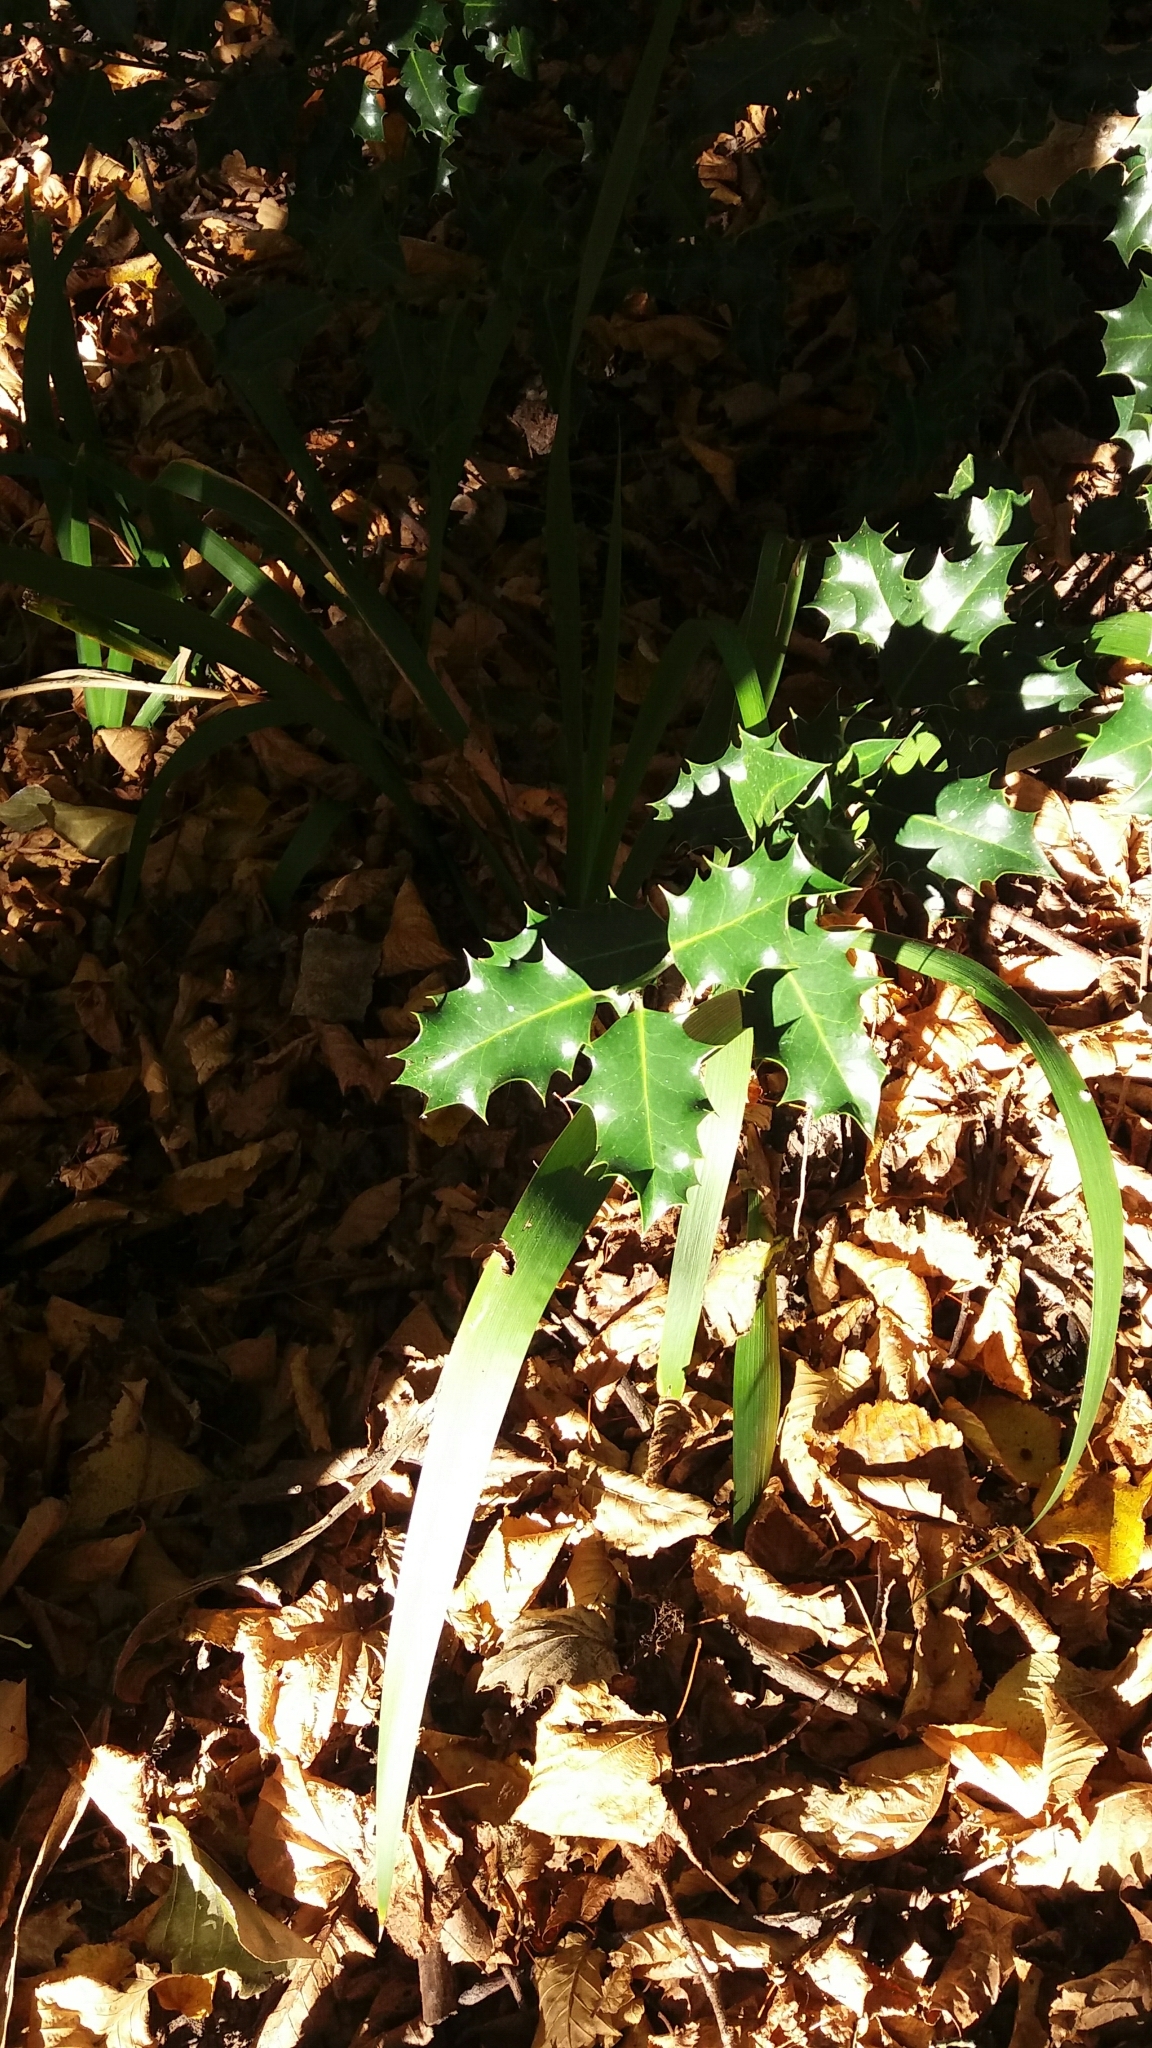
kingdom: Plantae
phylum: Tracheophyta
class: Magnoliopsida
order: Aquifoliales
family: Aquifoliaceae
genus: Ilex
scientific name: Ilex aquifolium
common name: English holly
